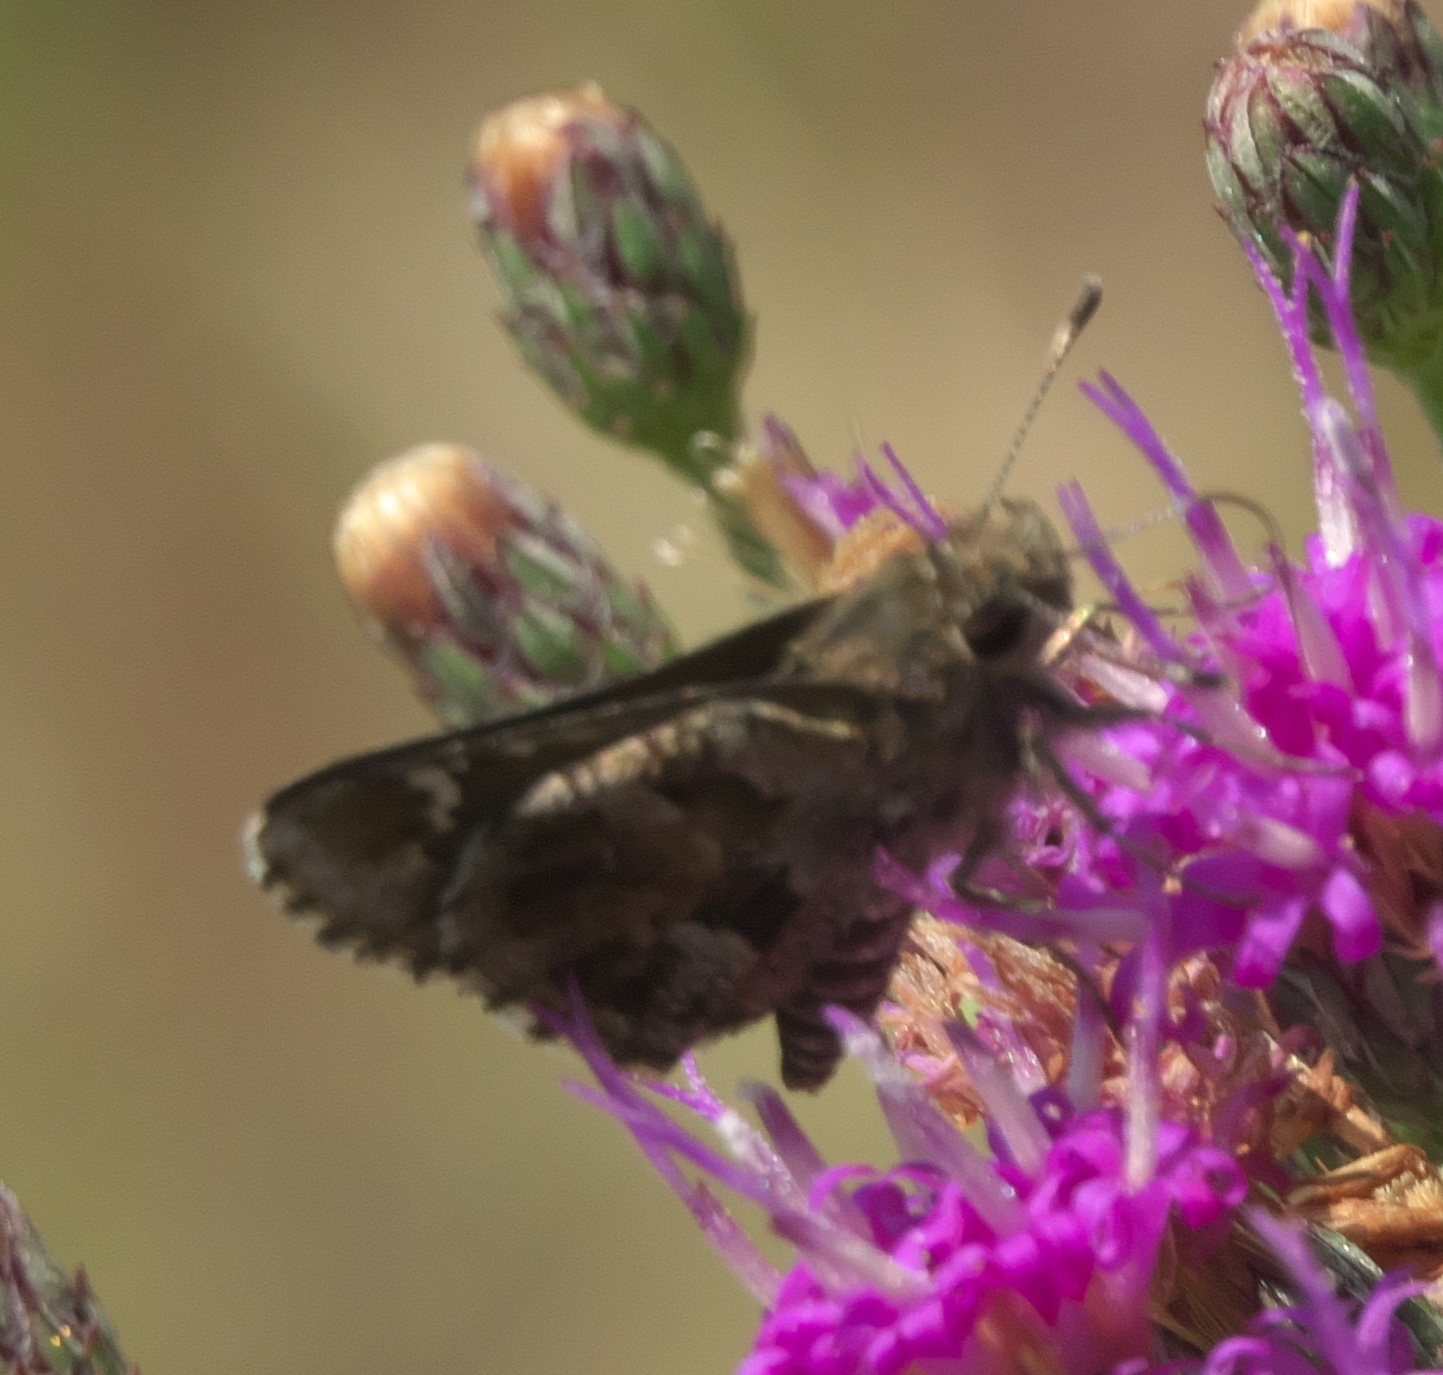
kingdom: Animalia
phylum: Arthropoda
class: Insecta
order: Lepidoptera
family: Hesperiidae
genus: Mastor
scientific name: Mastor nysa
